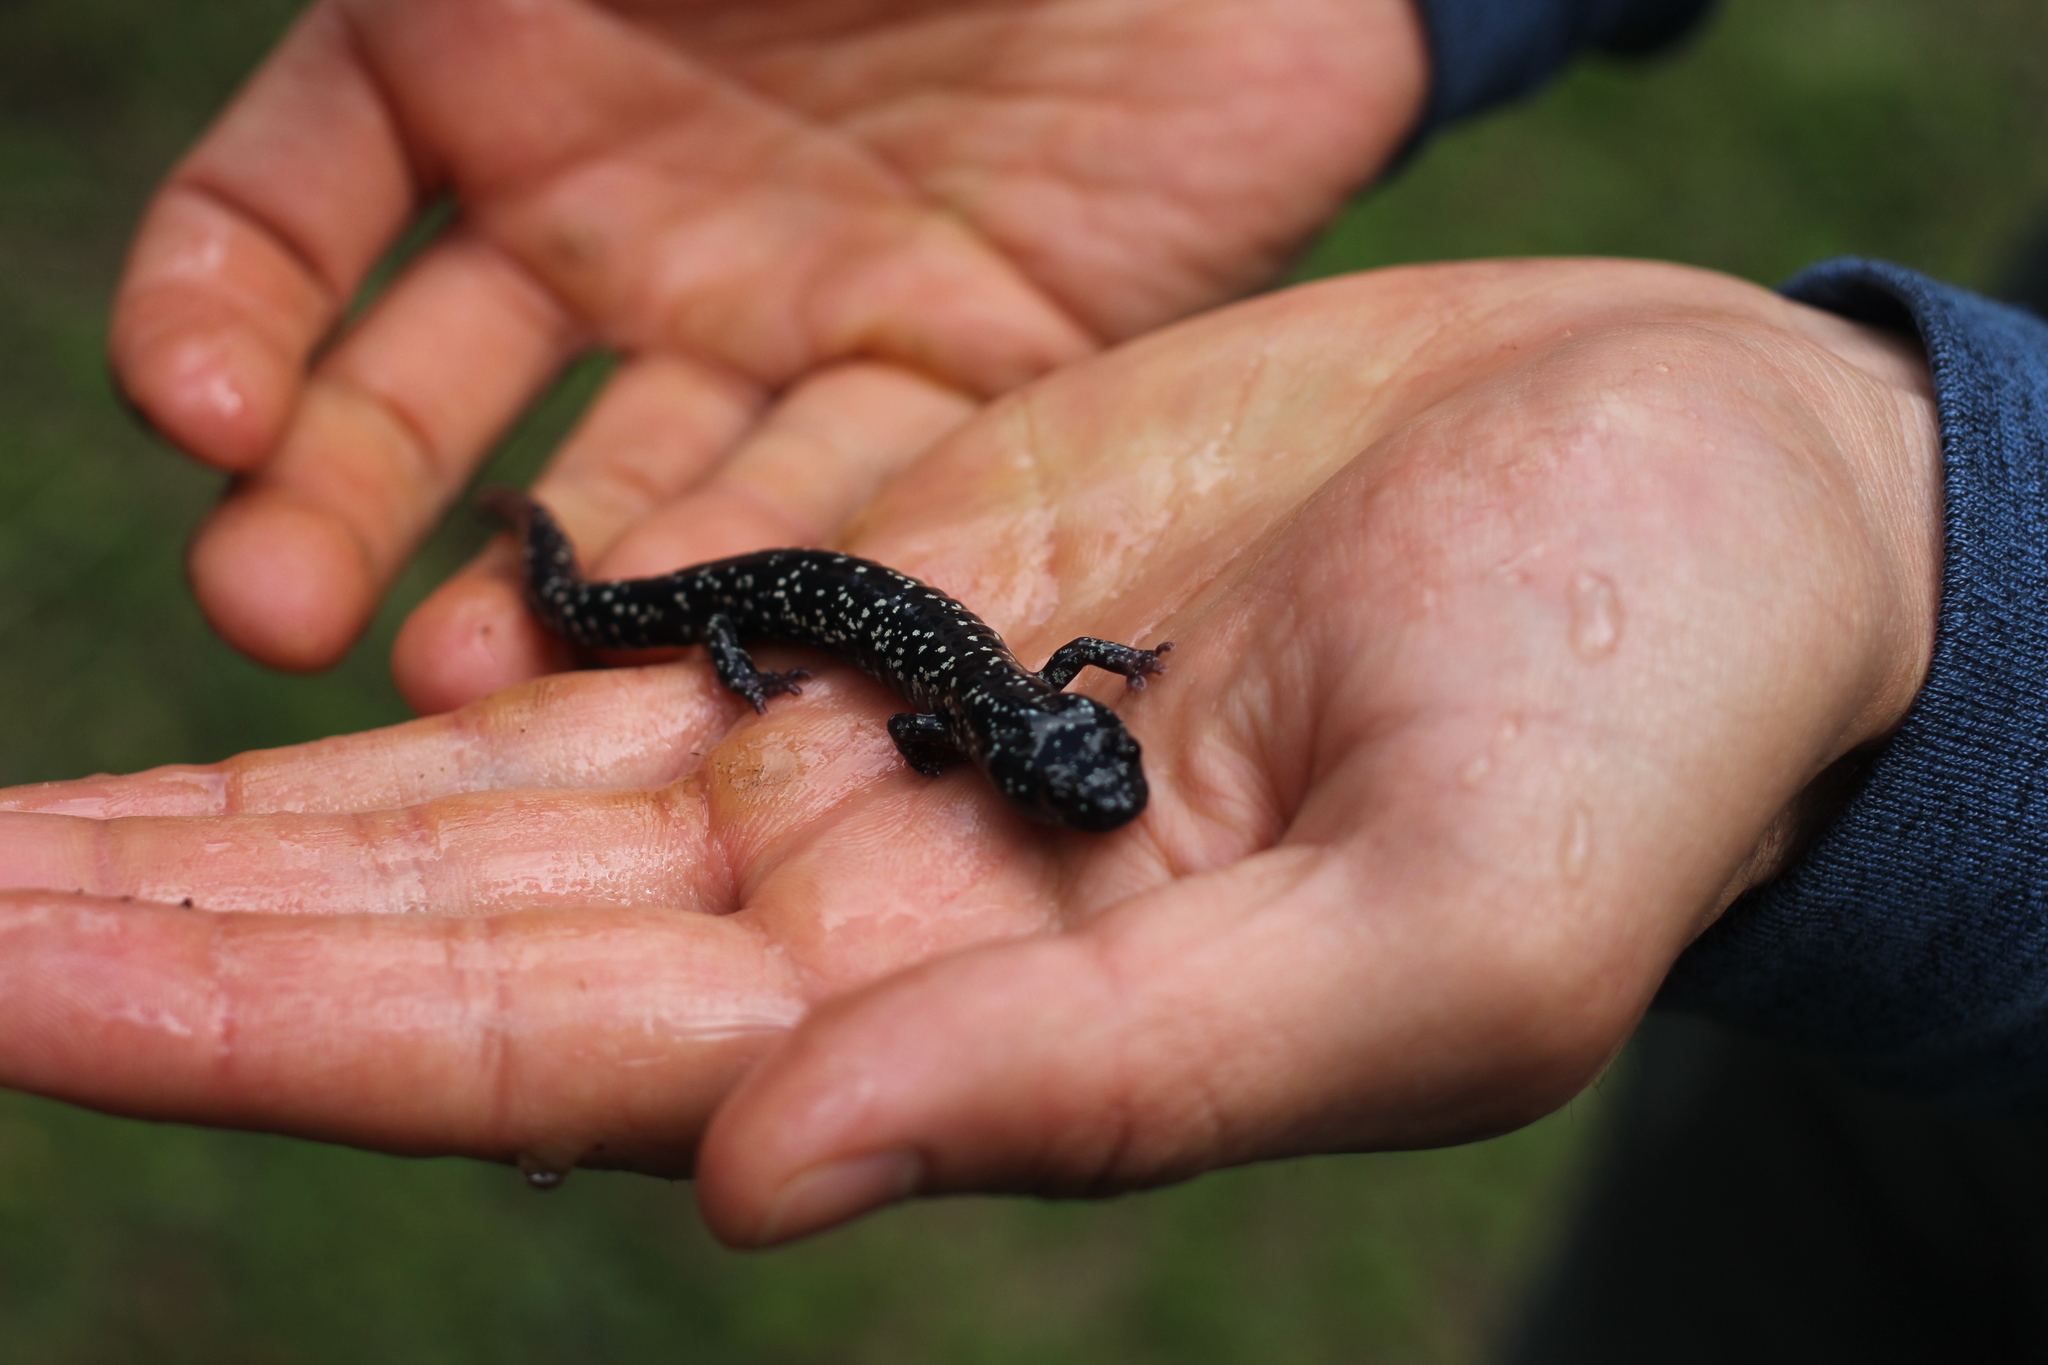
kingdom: Animalia
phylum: Chordata
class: Amphibia
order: Caudata
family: Plethodontidae
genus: Aneides
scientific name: Aneides flavipunctatus
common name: Black salamander
